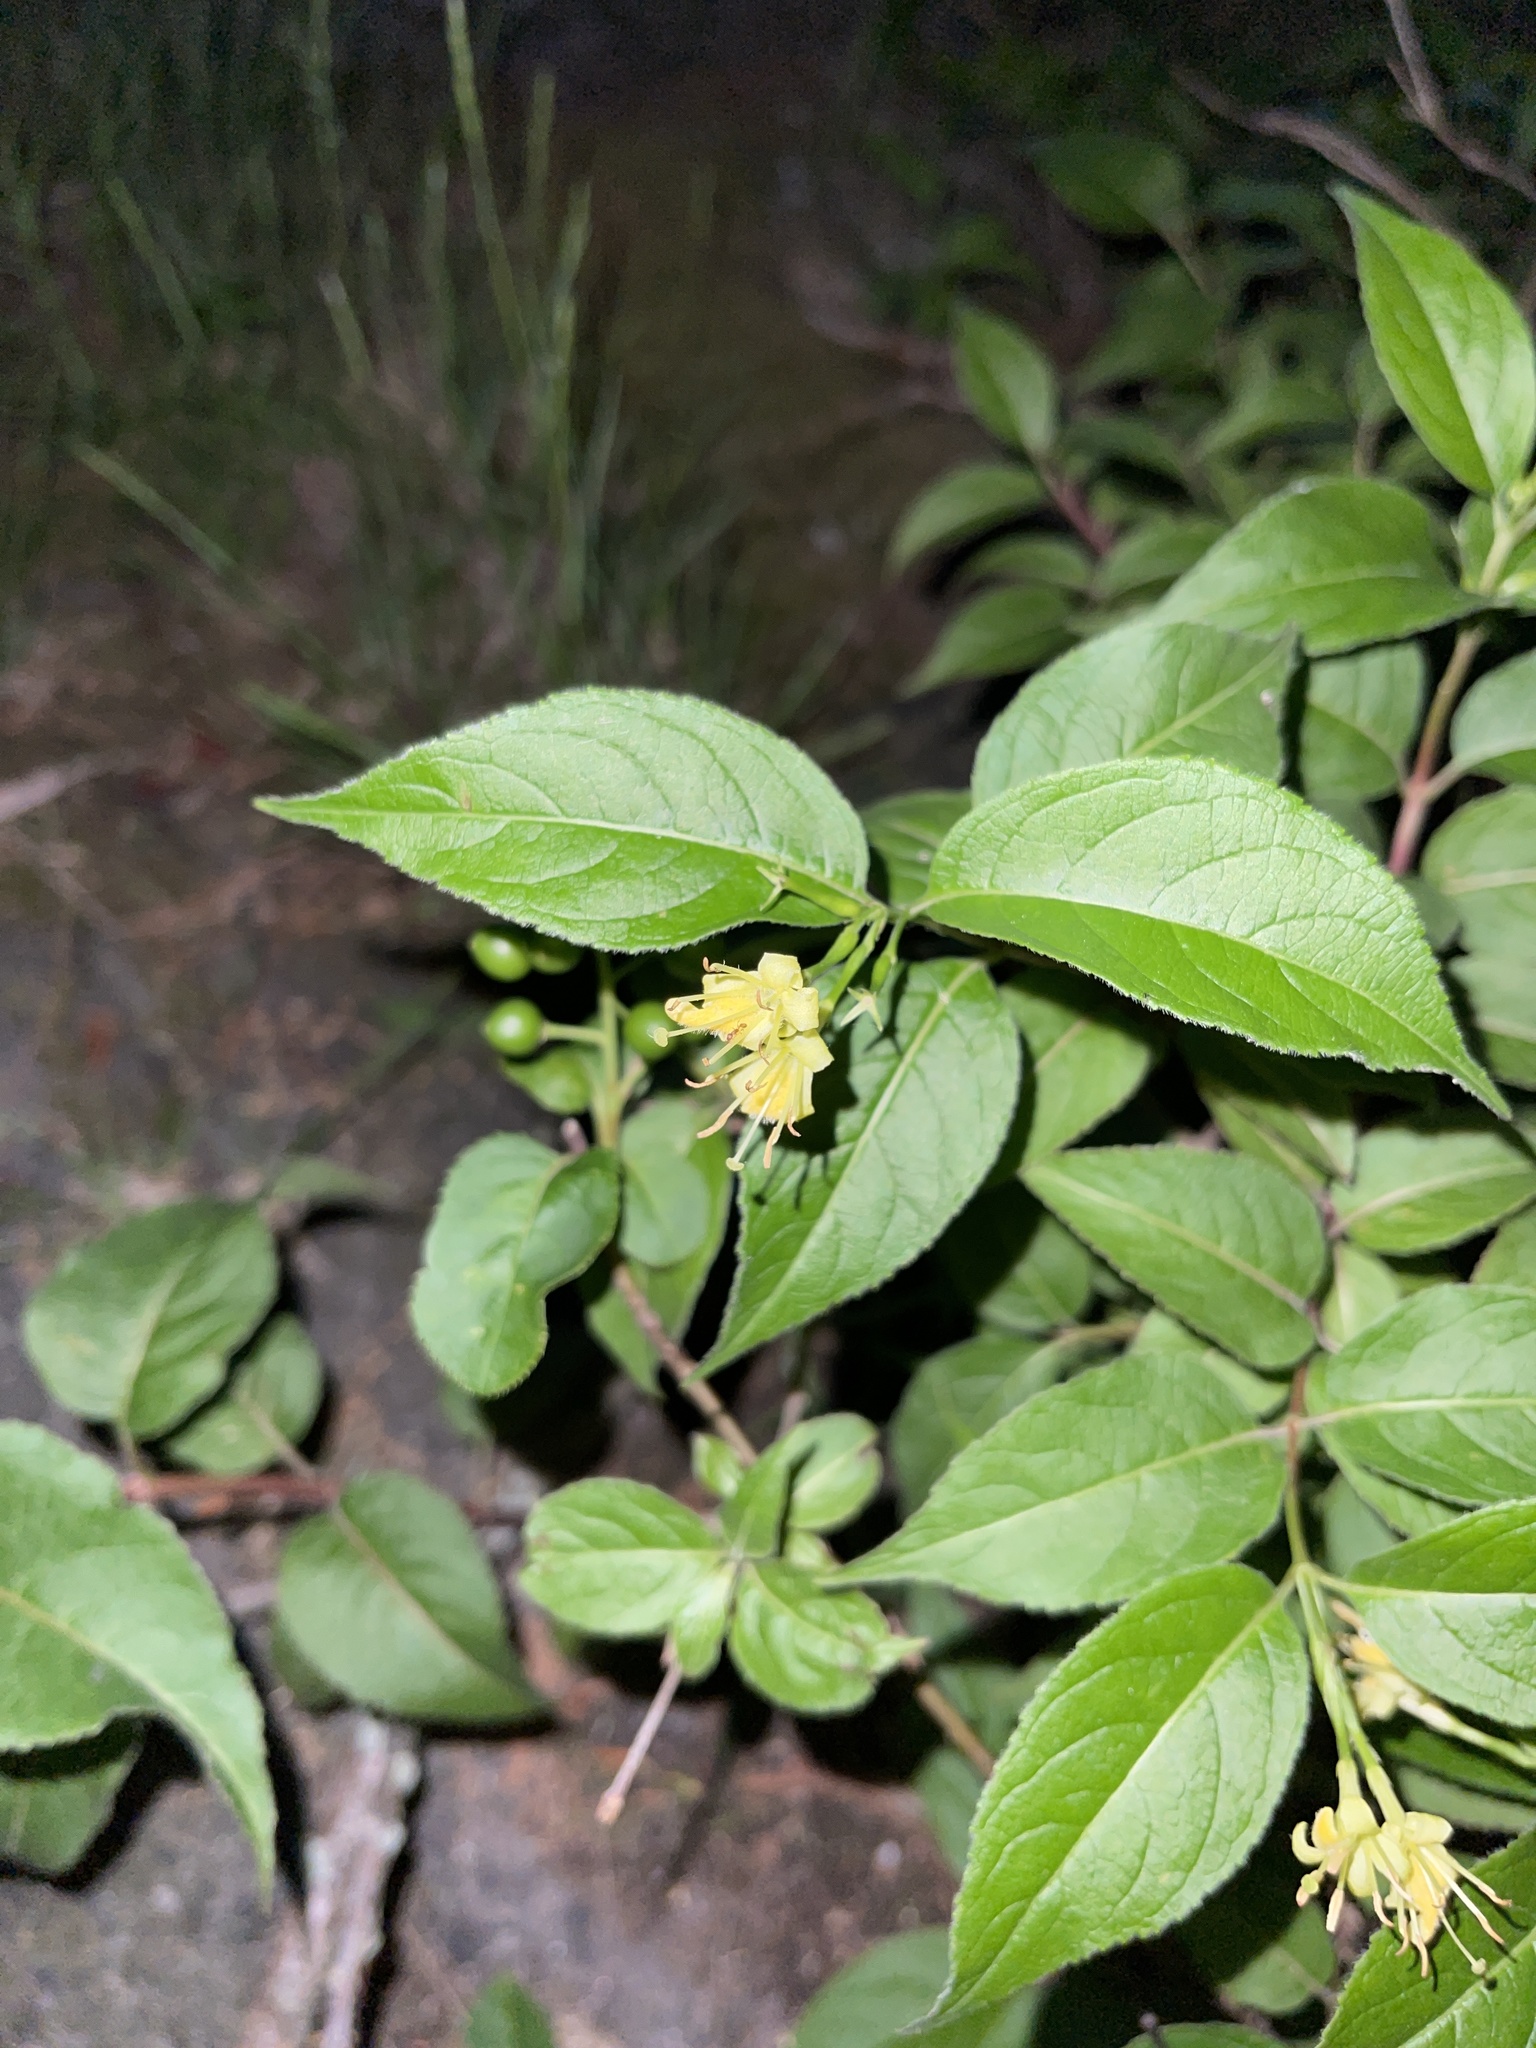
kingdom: Plantae
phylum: Tracheophyta
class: Magnoliopsida
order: Dipsacales
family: Caprifoliaceae
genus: Diervilla
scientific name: Diervilla lonicera
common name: Bush-honeysuckle
